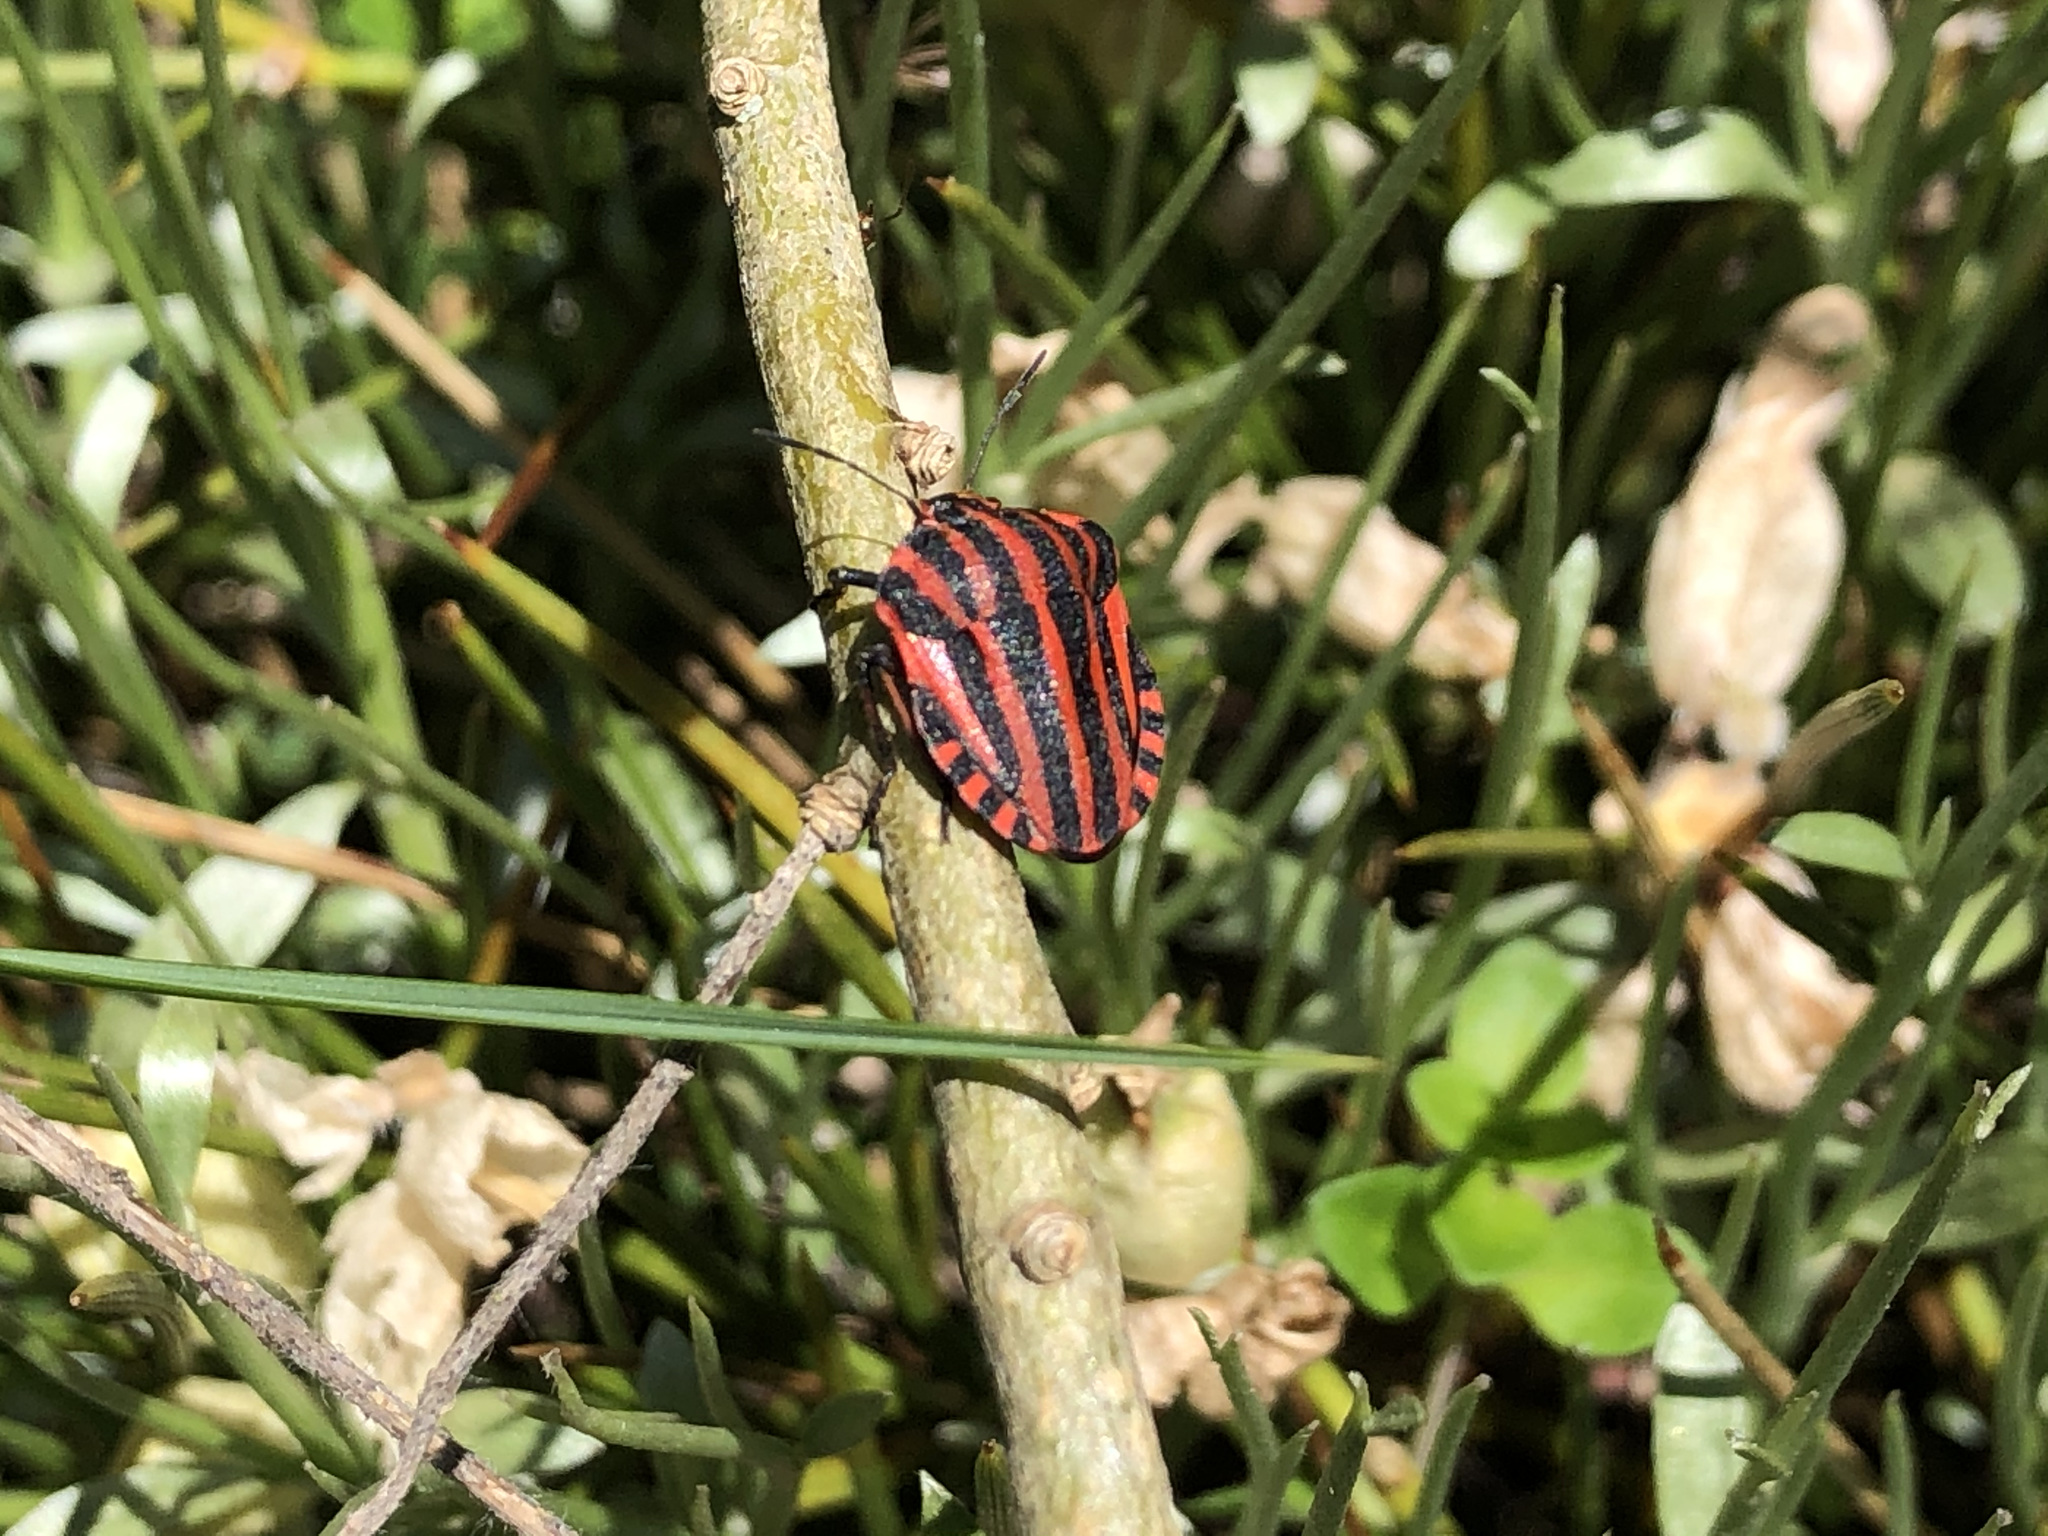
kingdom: Animalia
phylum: Arthropoda
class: Insecta
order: Hemiptera
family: Pentatomidae
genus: Graphosoma
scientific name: Graphosoma italicum
